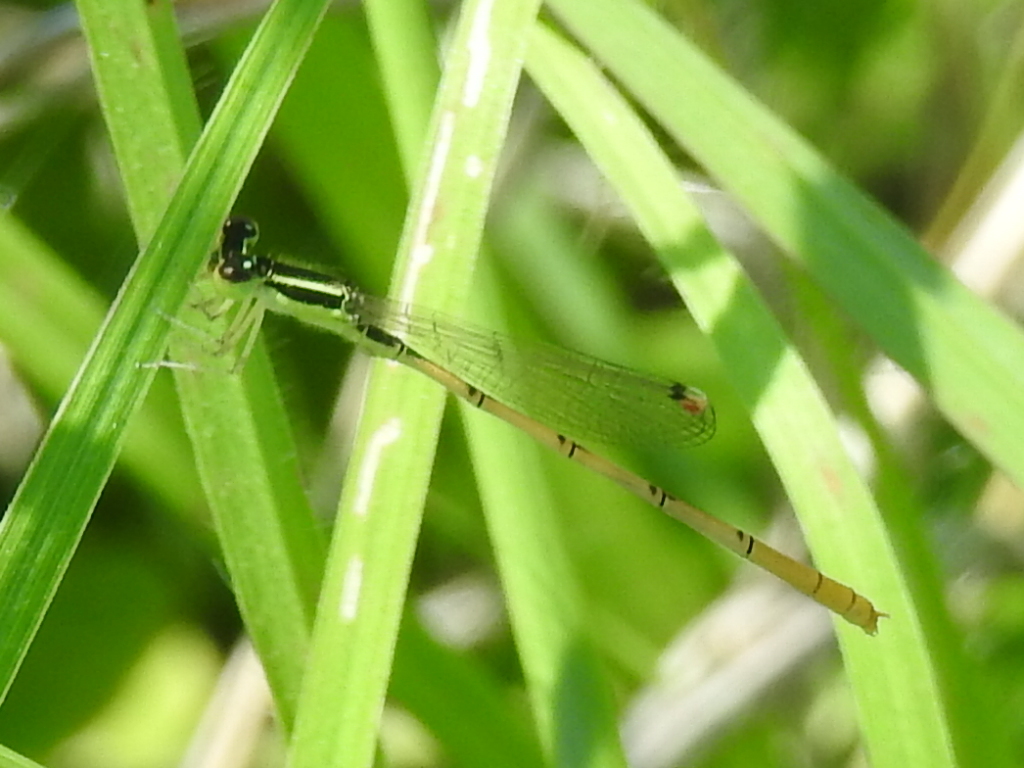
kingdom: Animalia
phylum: Arthropoda
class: Insecta
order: Odonata
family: Coenagrionidae
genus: Ischnura
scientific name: Ischnura hastata
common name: Citrine forktail
